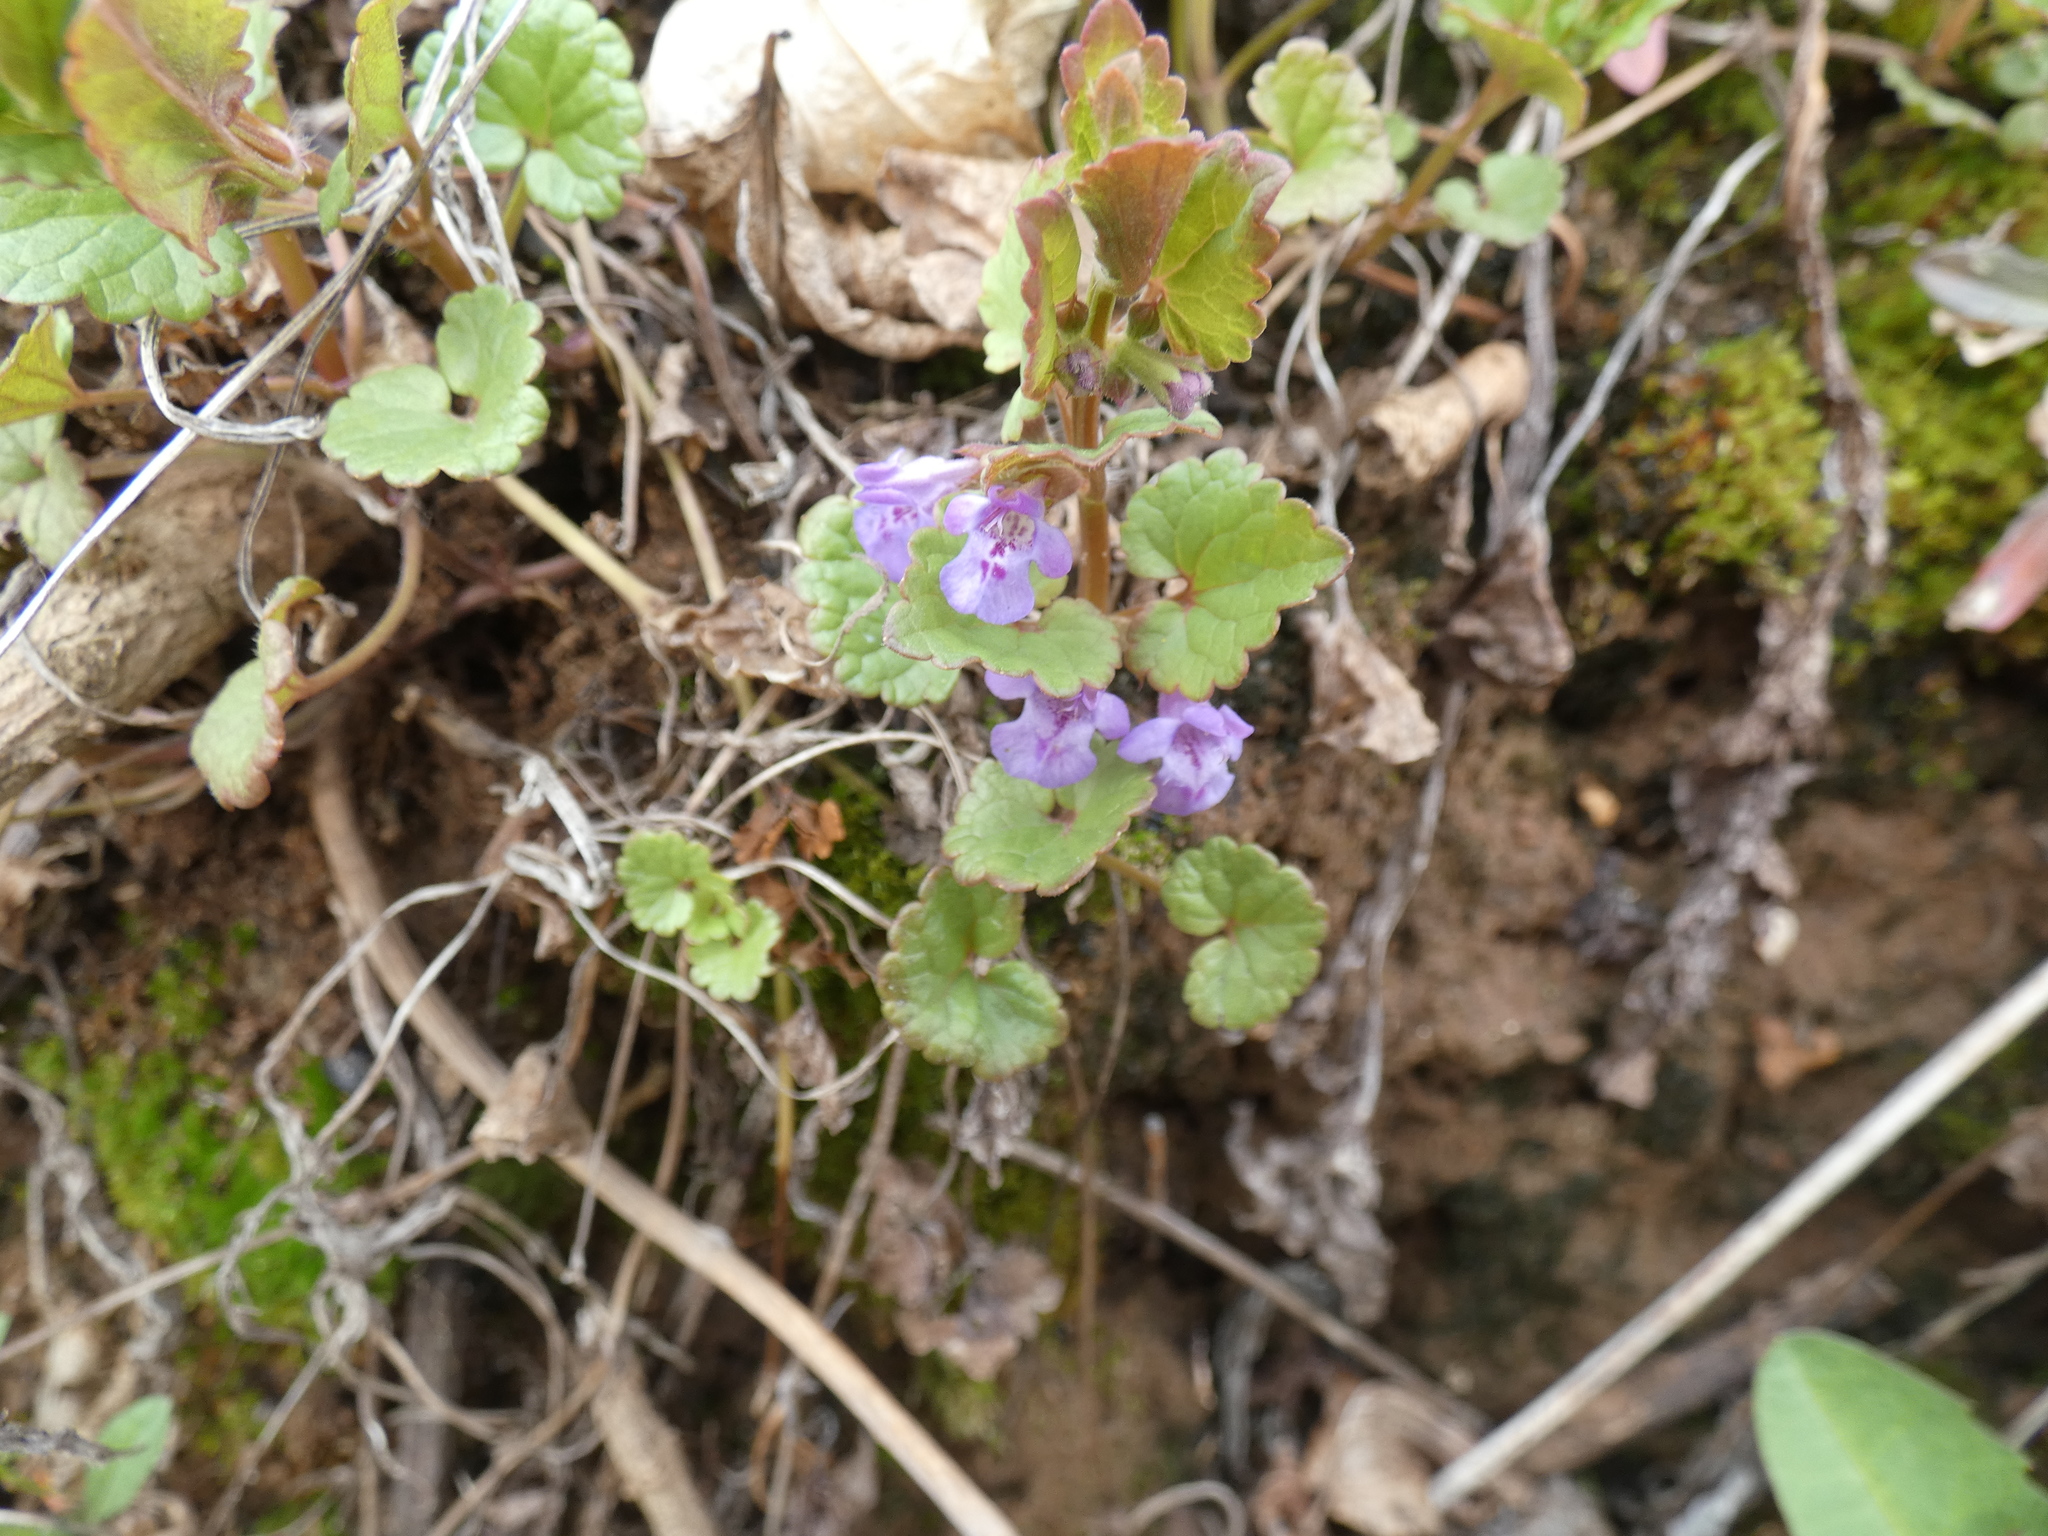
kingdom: Plantae
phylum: Tracheophyta
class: Magnoliopsida
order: Lamiales
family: Lamiaceae
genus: Glechoma
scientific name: Glechoma hederacea
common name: Ground ivy
